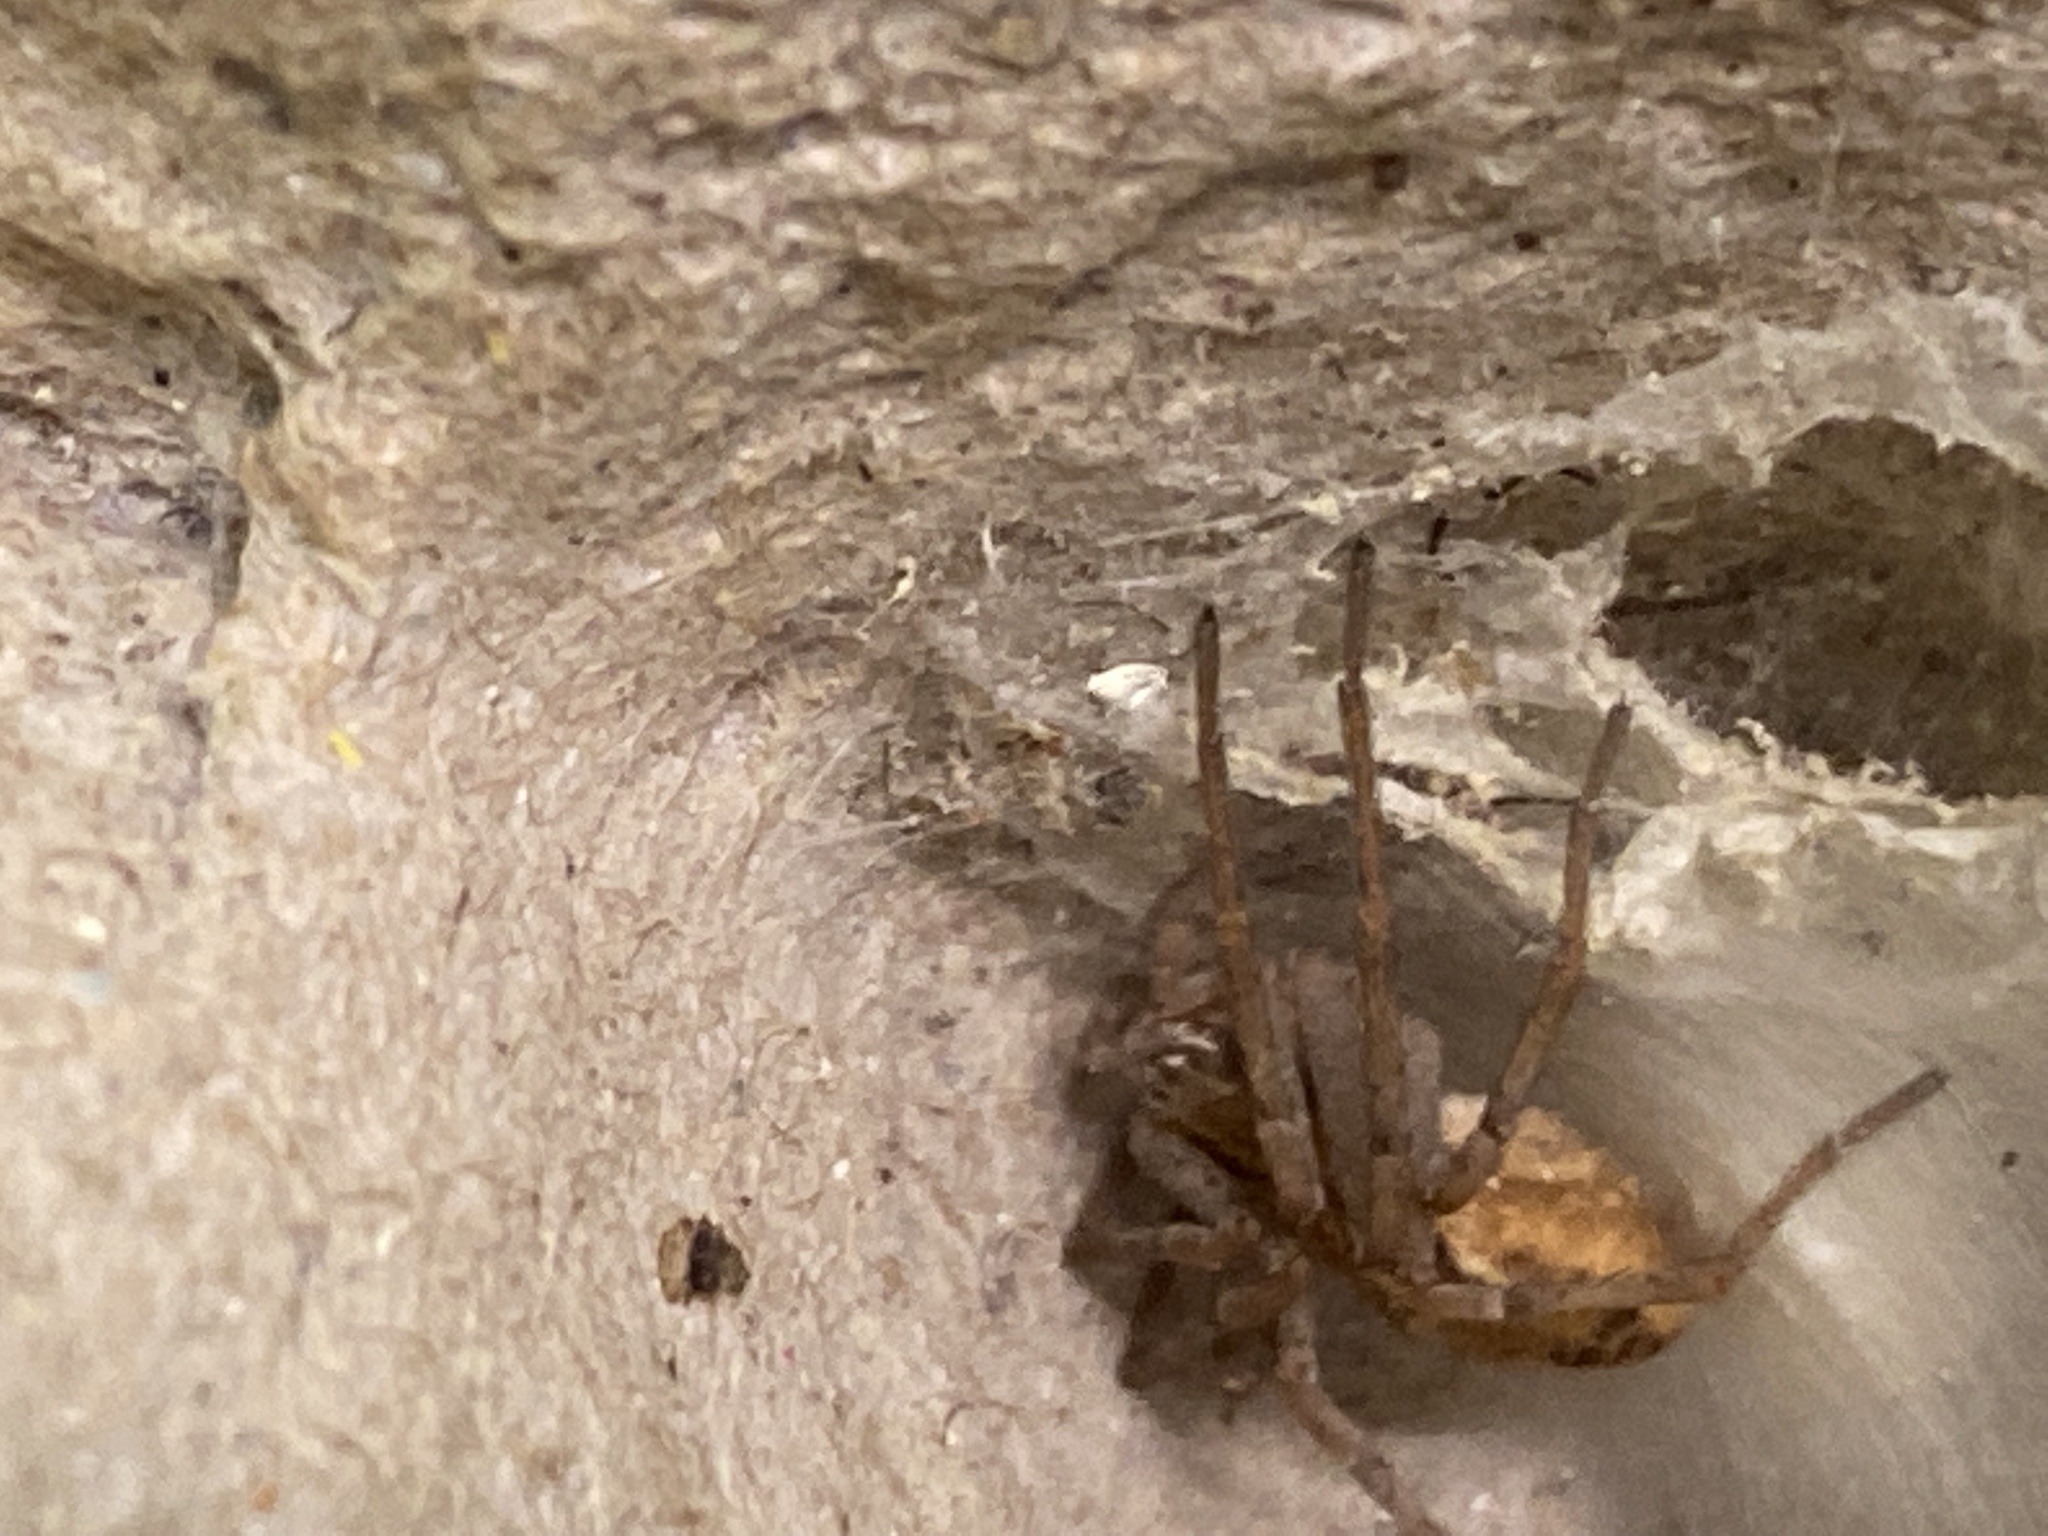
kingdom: Animalia
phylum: Arthropoda
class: Arachnida
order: Araneae
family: Philodromidae
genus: Thanatus
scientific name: Thanatus vulgaris
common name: European running crab spider
